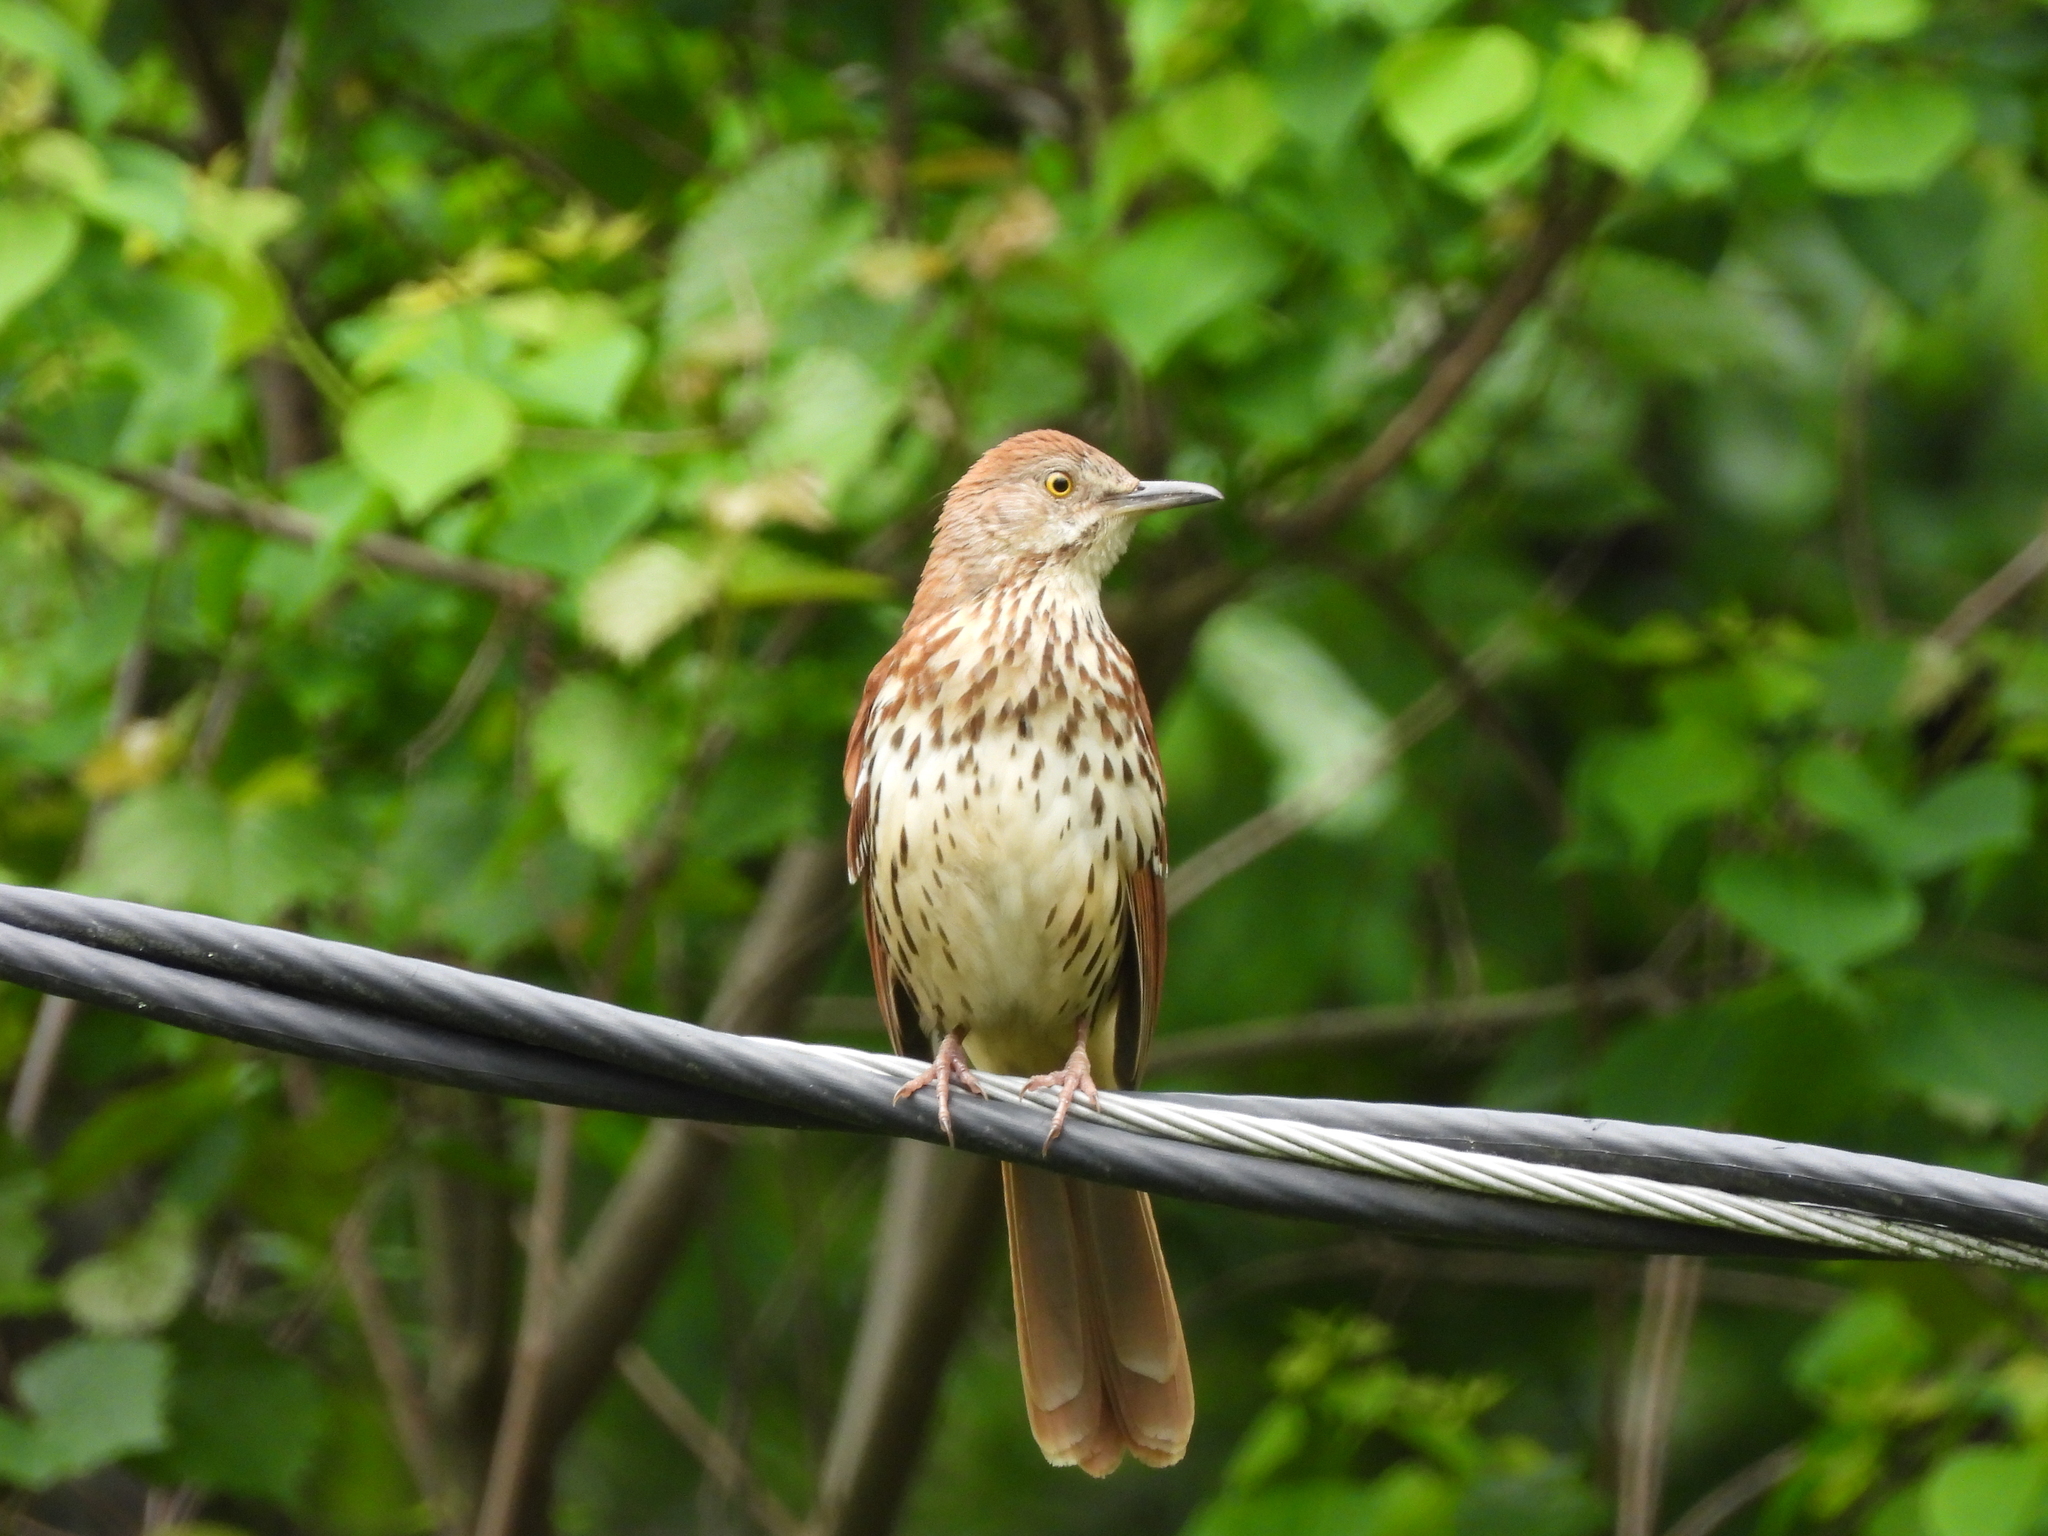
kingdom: Animalia
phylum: Chordata
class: Aves
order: Passeriformes
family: Mimidae
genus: Toxostoma
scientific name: Toxostoma rufum
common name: Brown thrasher
